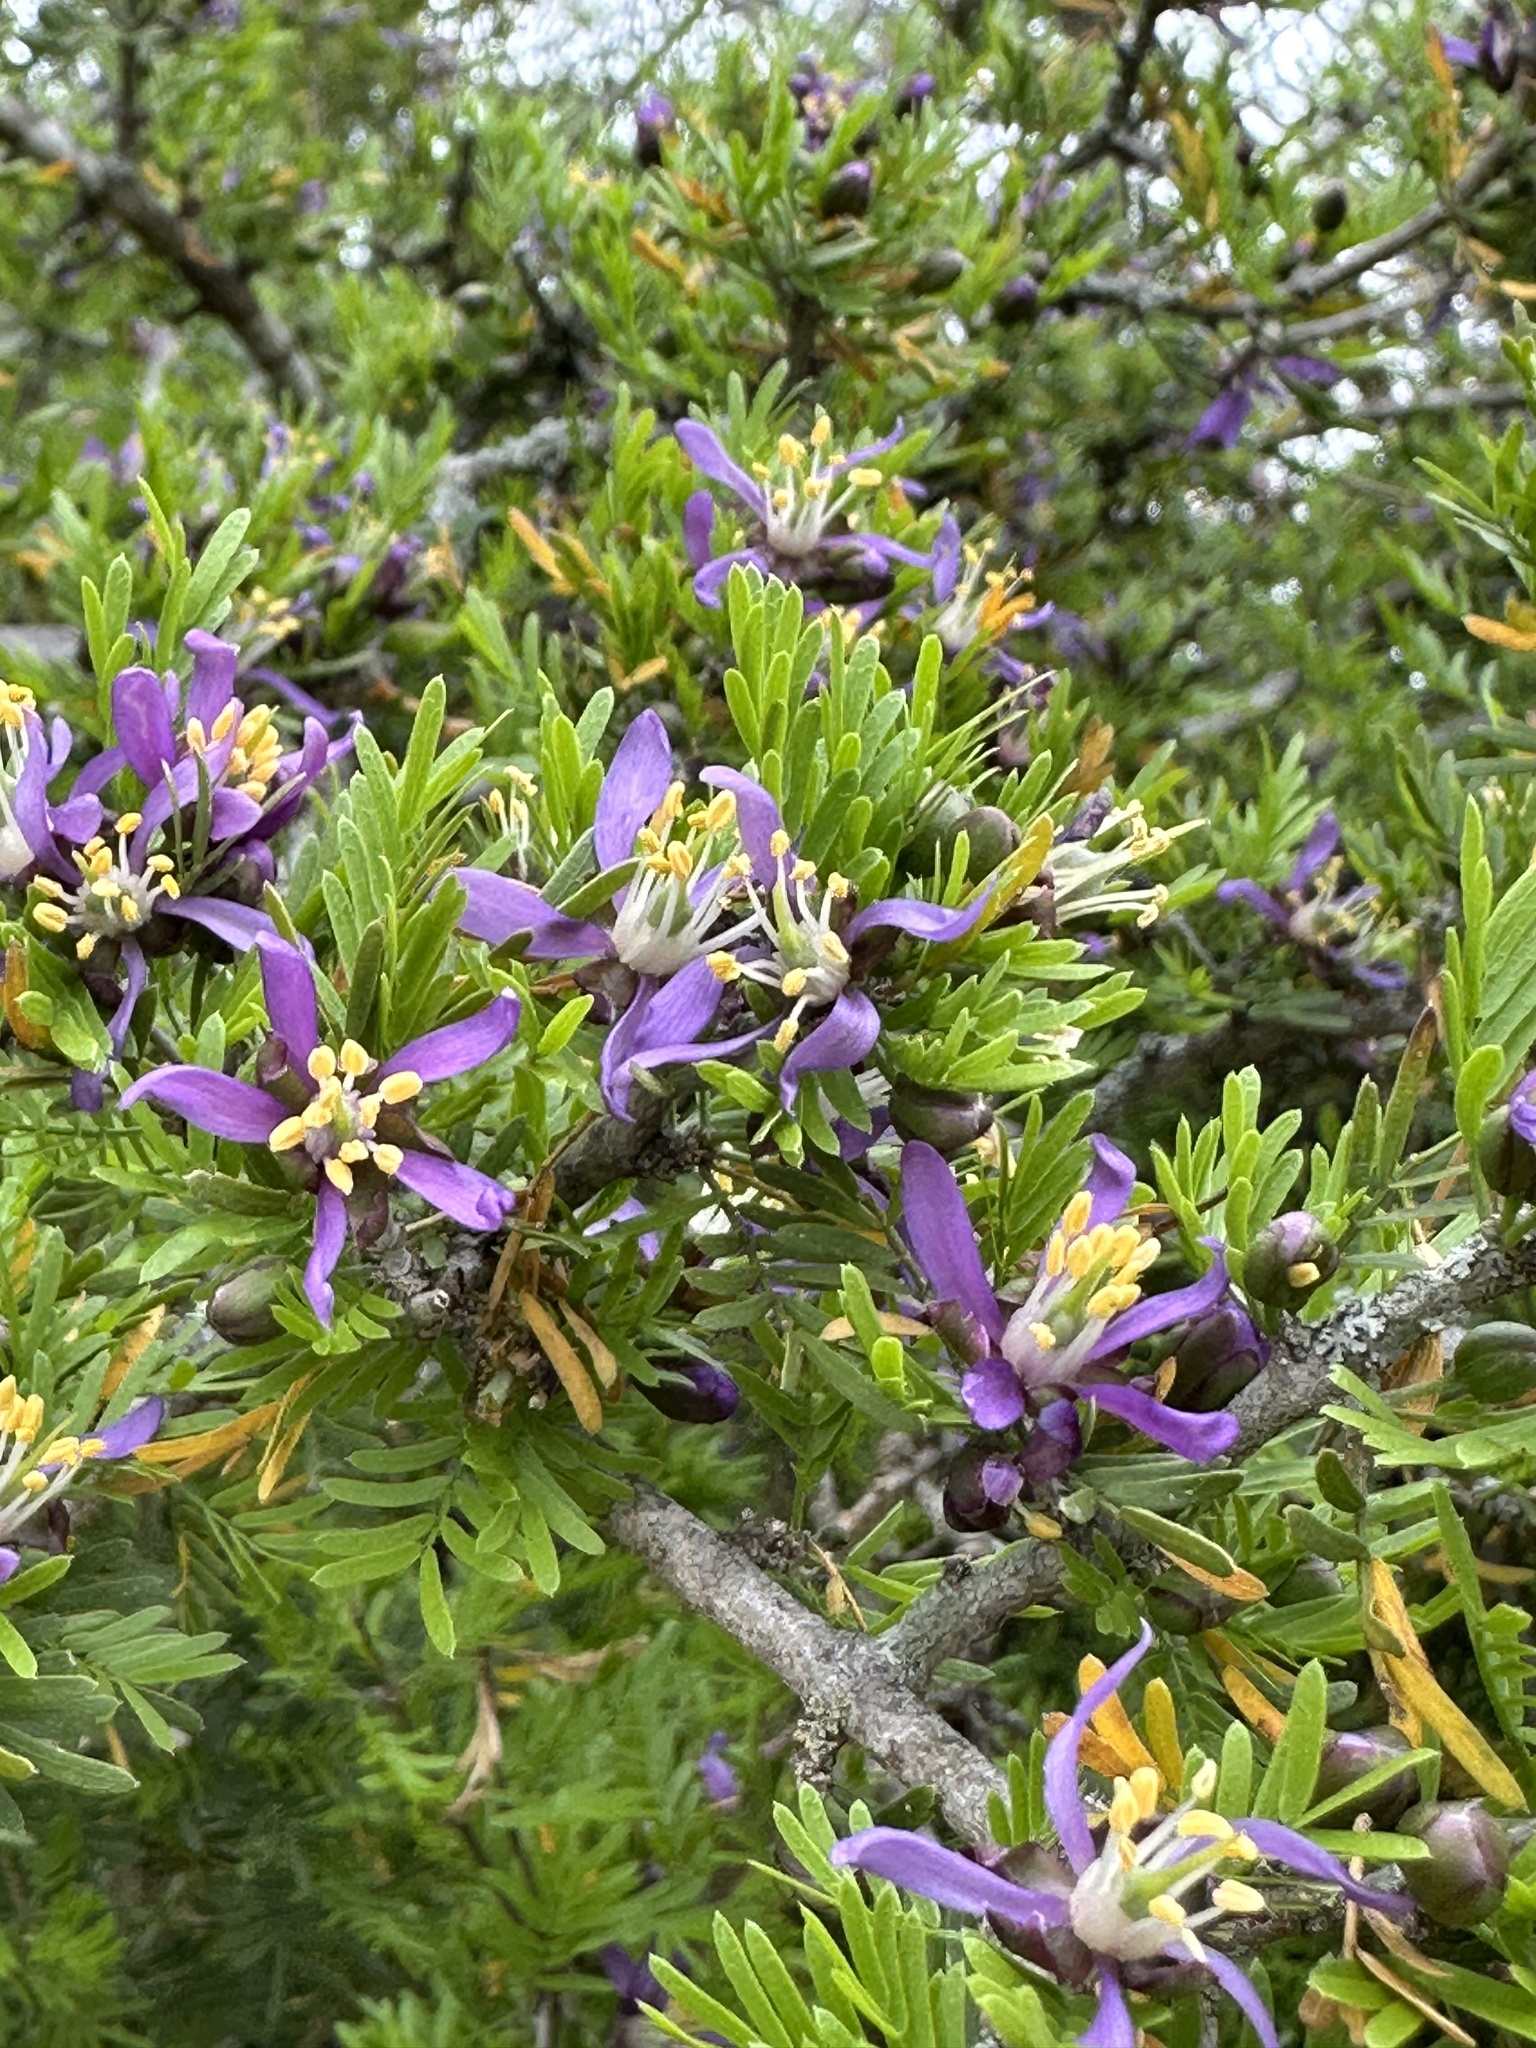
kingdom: Plantae
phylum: Tracheophyta
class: Magnoliopsida
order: Zygophyllales
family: Zygophyllaceae
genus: Porlieria
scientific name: Porlieria angustifolia
